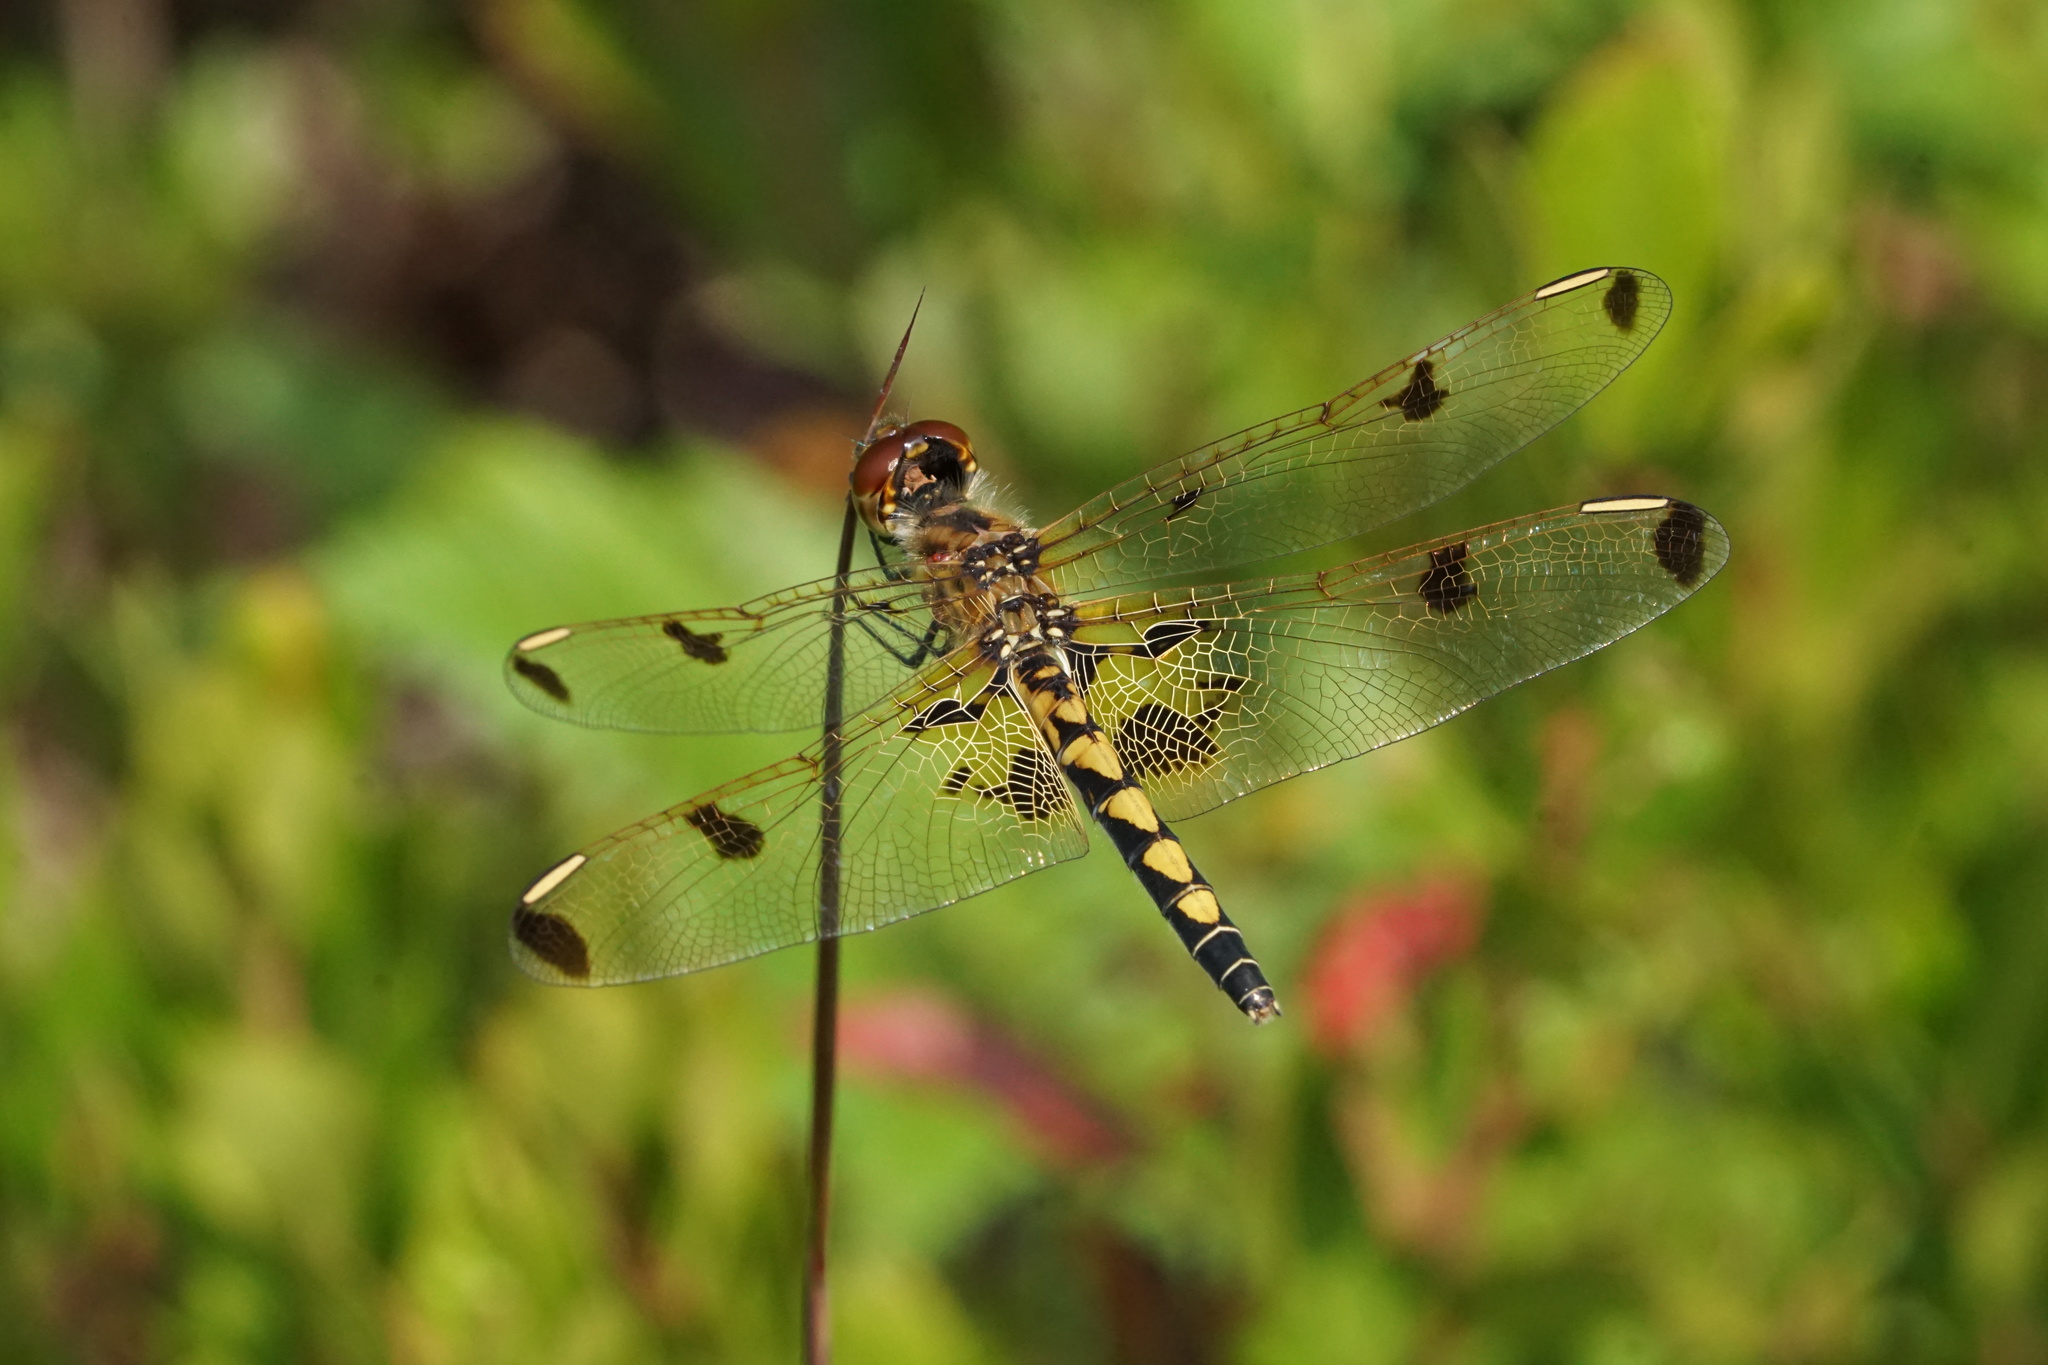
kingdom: Animalia
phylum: Arthropoda
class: Insecta
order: Odonata
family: Libellulidae
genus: Celithemis
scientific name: Celithemis elisa
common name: Calico pennant
